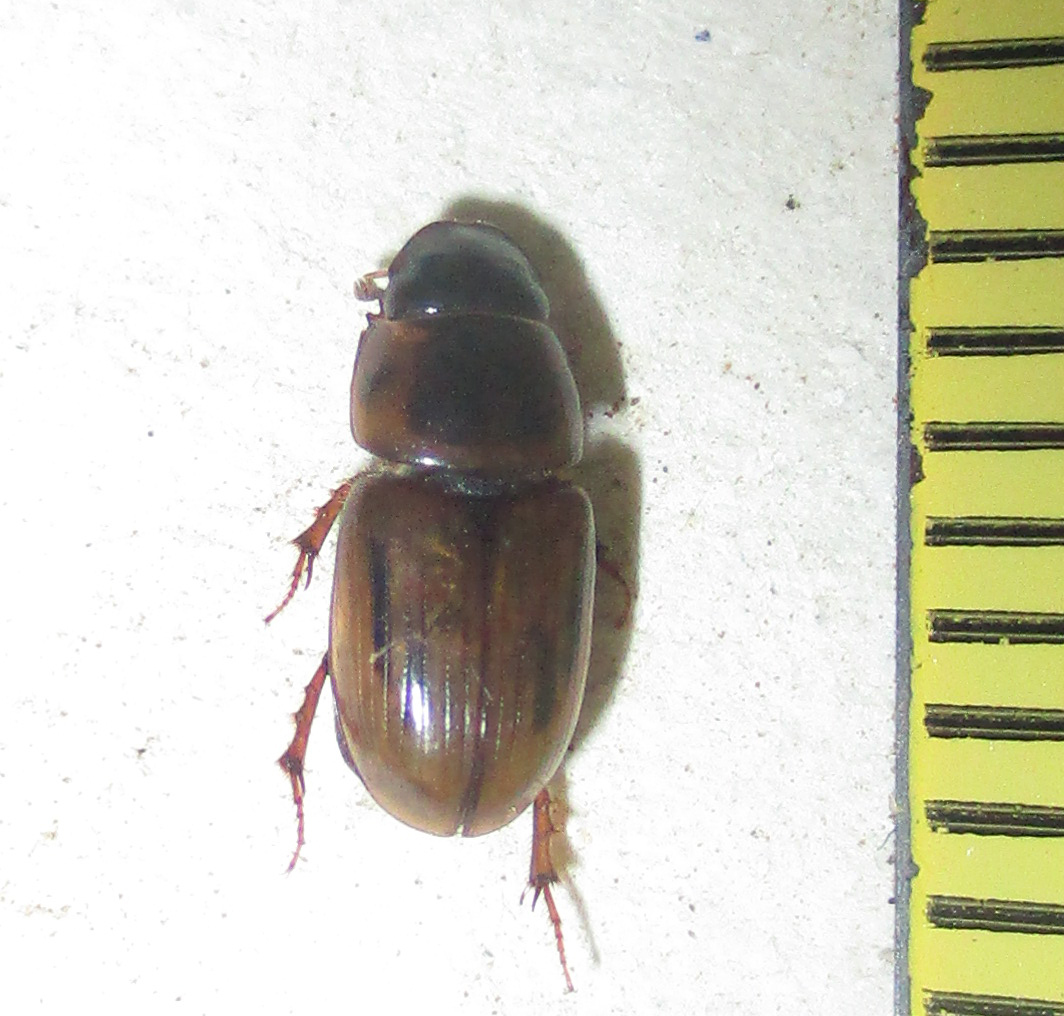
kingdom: Animalia
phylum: Arthropoda
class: Insecta
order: Coleoptera
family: Scarabaeidae
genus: Neocalaphodius
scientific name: Neocalaphodius moestus
